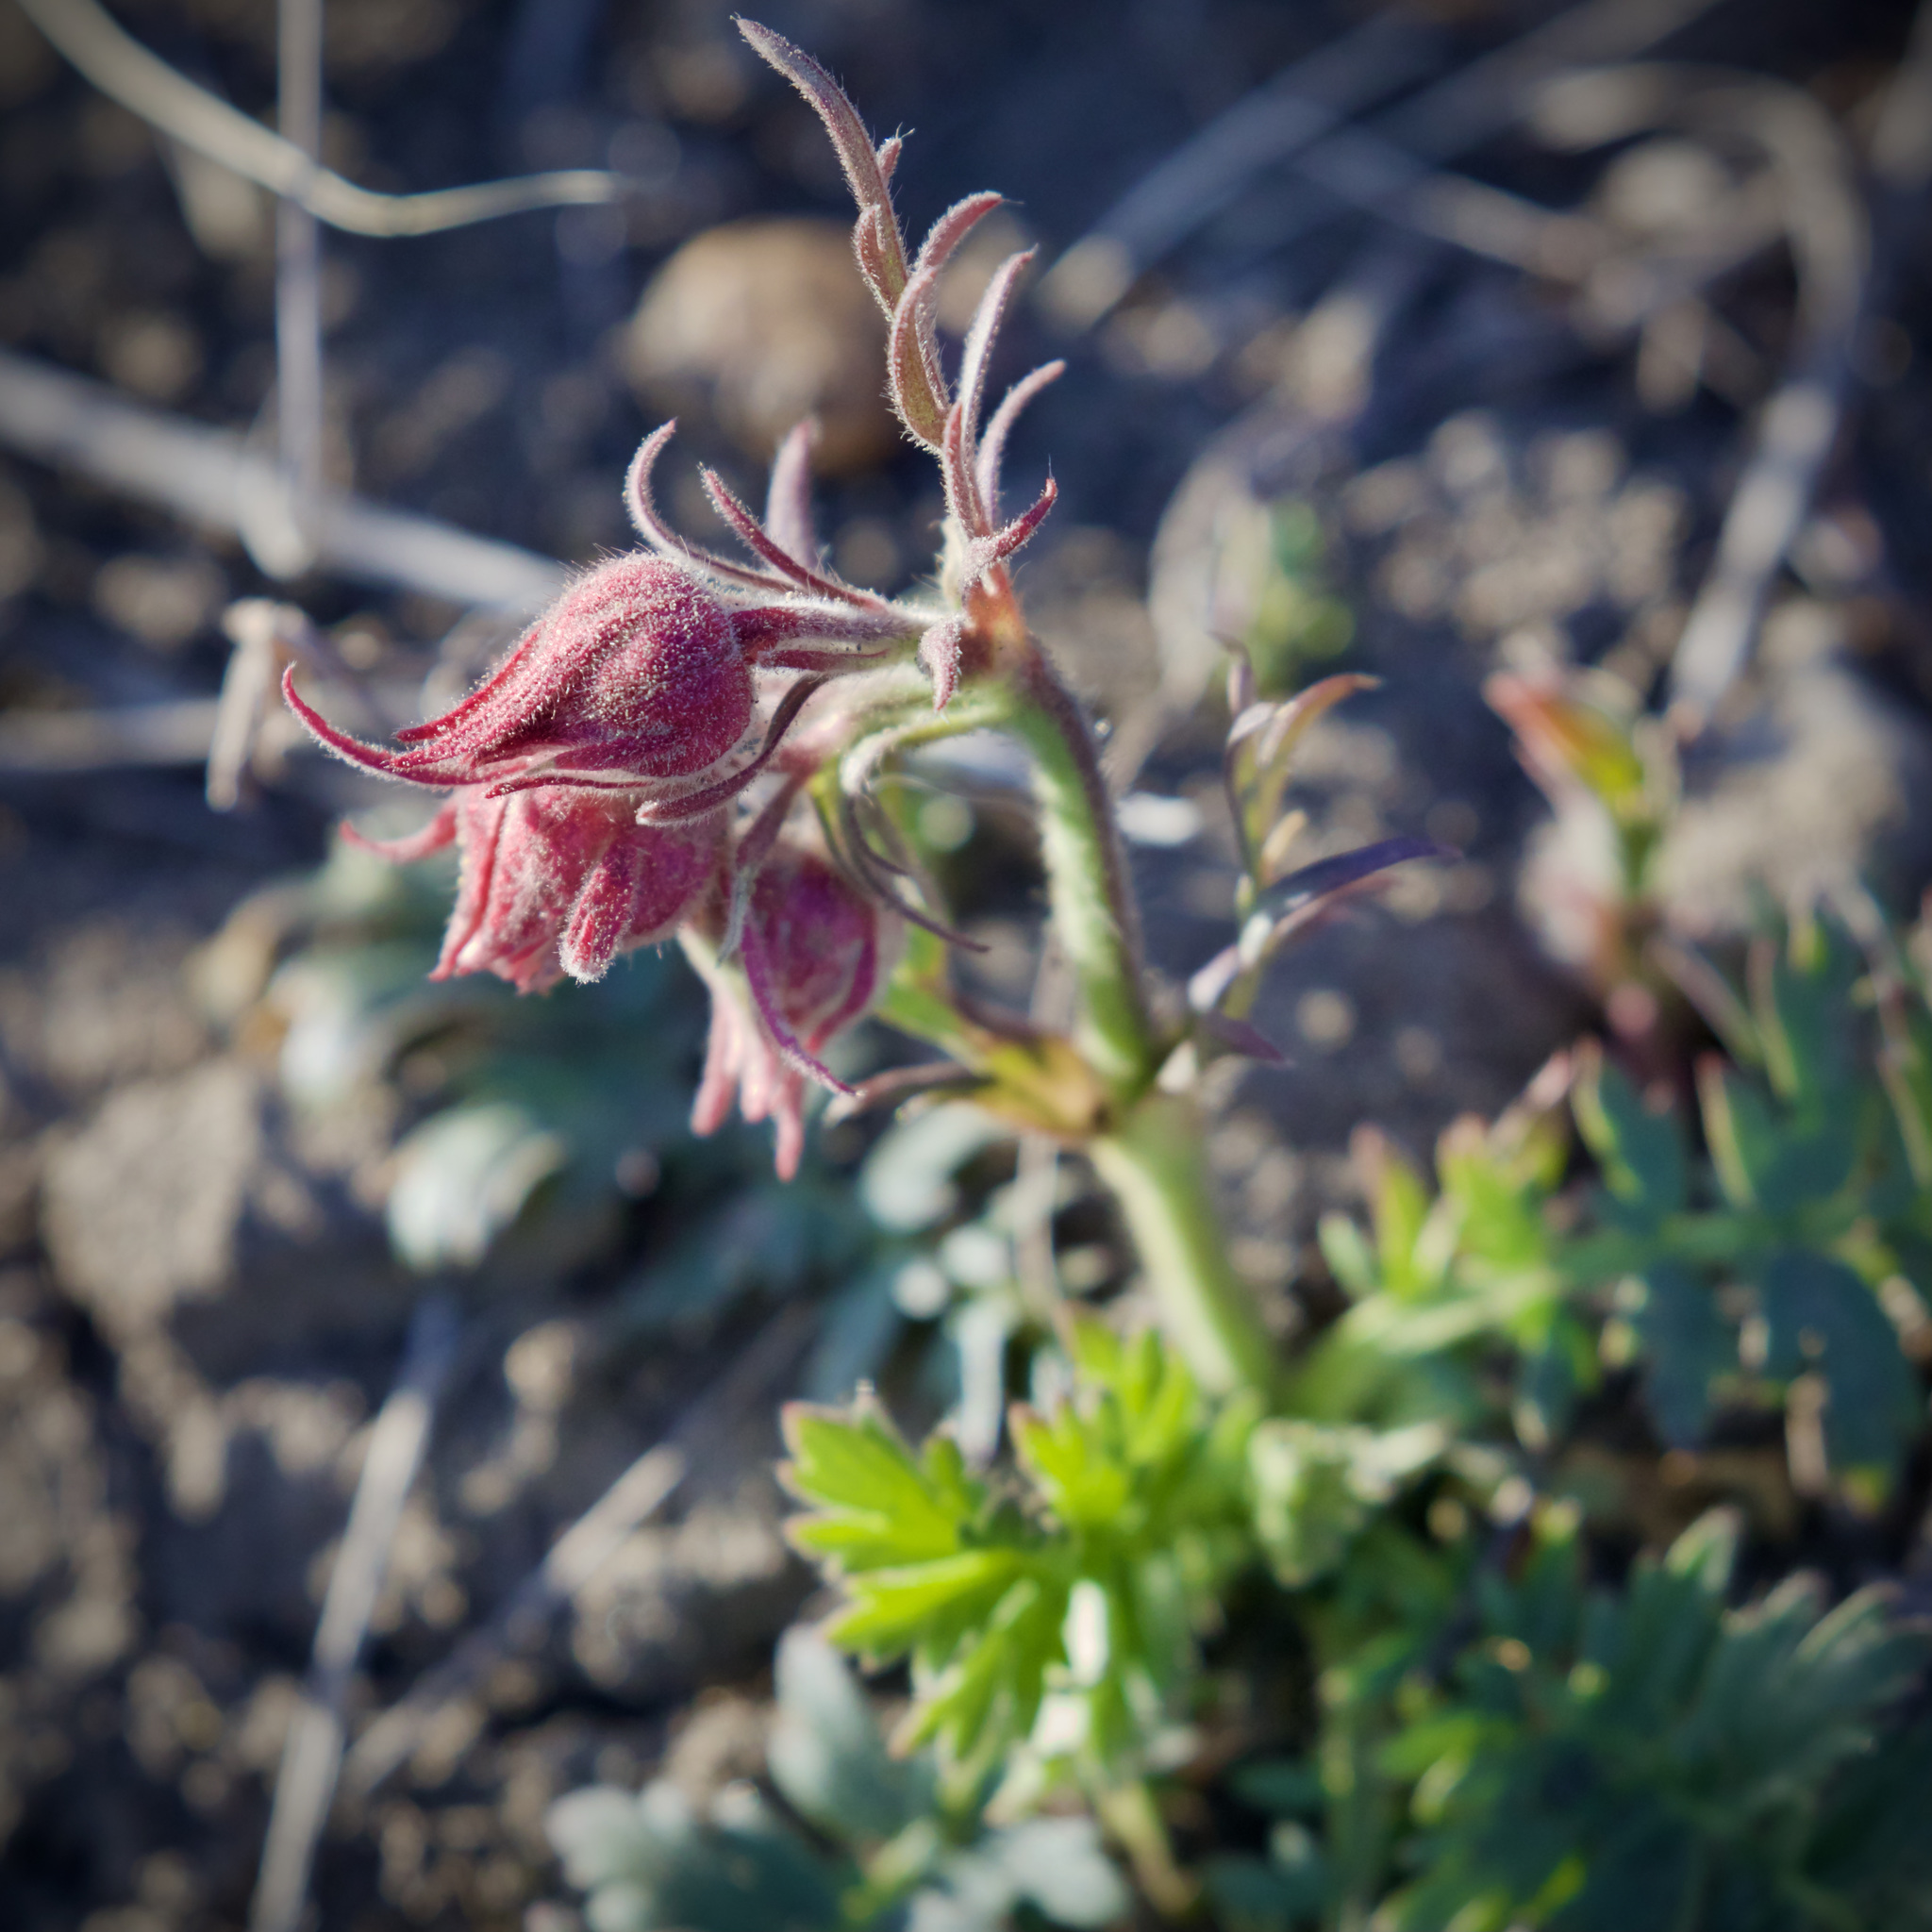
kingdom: Plantae
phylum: Tracheophyta
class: Magnoliopsida
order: Rosales
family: Rosaceae
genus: Geum
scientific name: Geum triflorum
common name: Old man's whiskers
